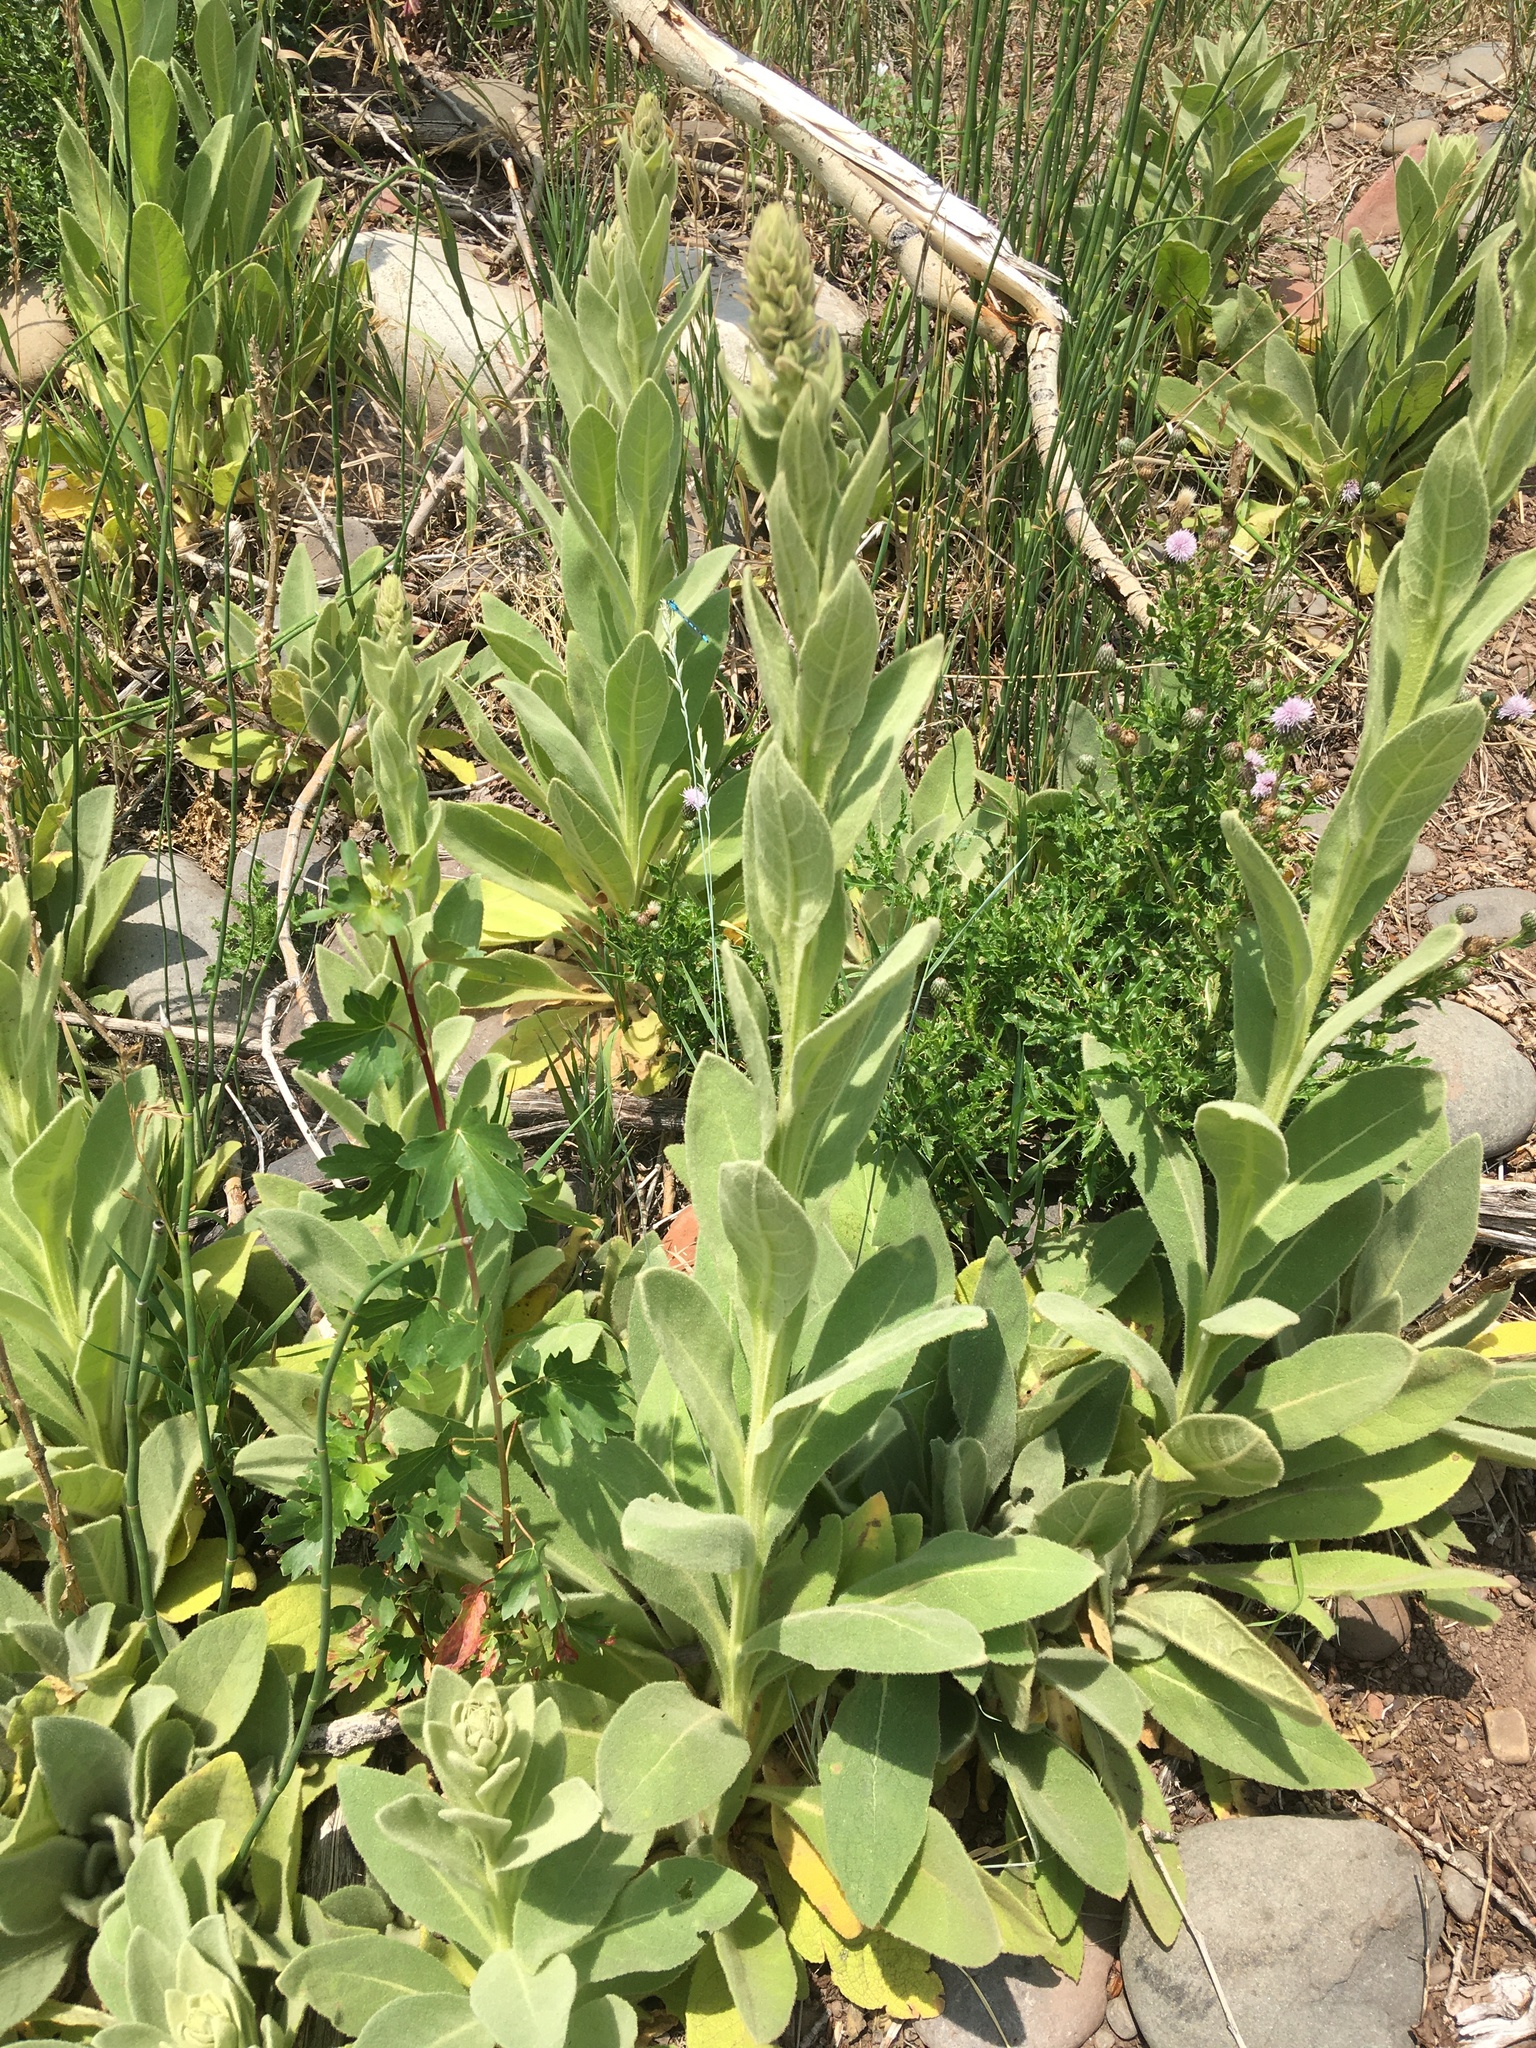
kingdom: Plantae
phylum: Tracheophyta
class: Magnoliopsida
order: Lamiales
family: Scrophulariaceae
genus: Verbascum
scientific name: Verbascum thapsus
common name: Common mullein
